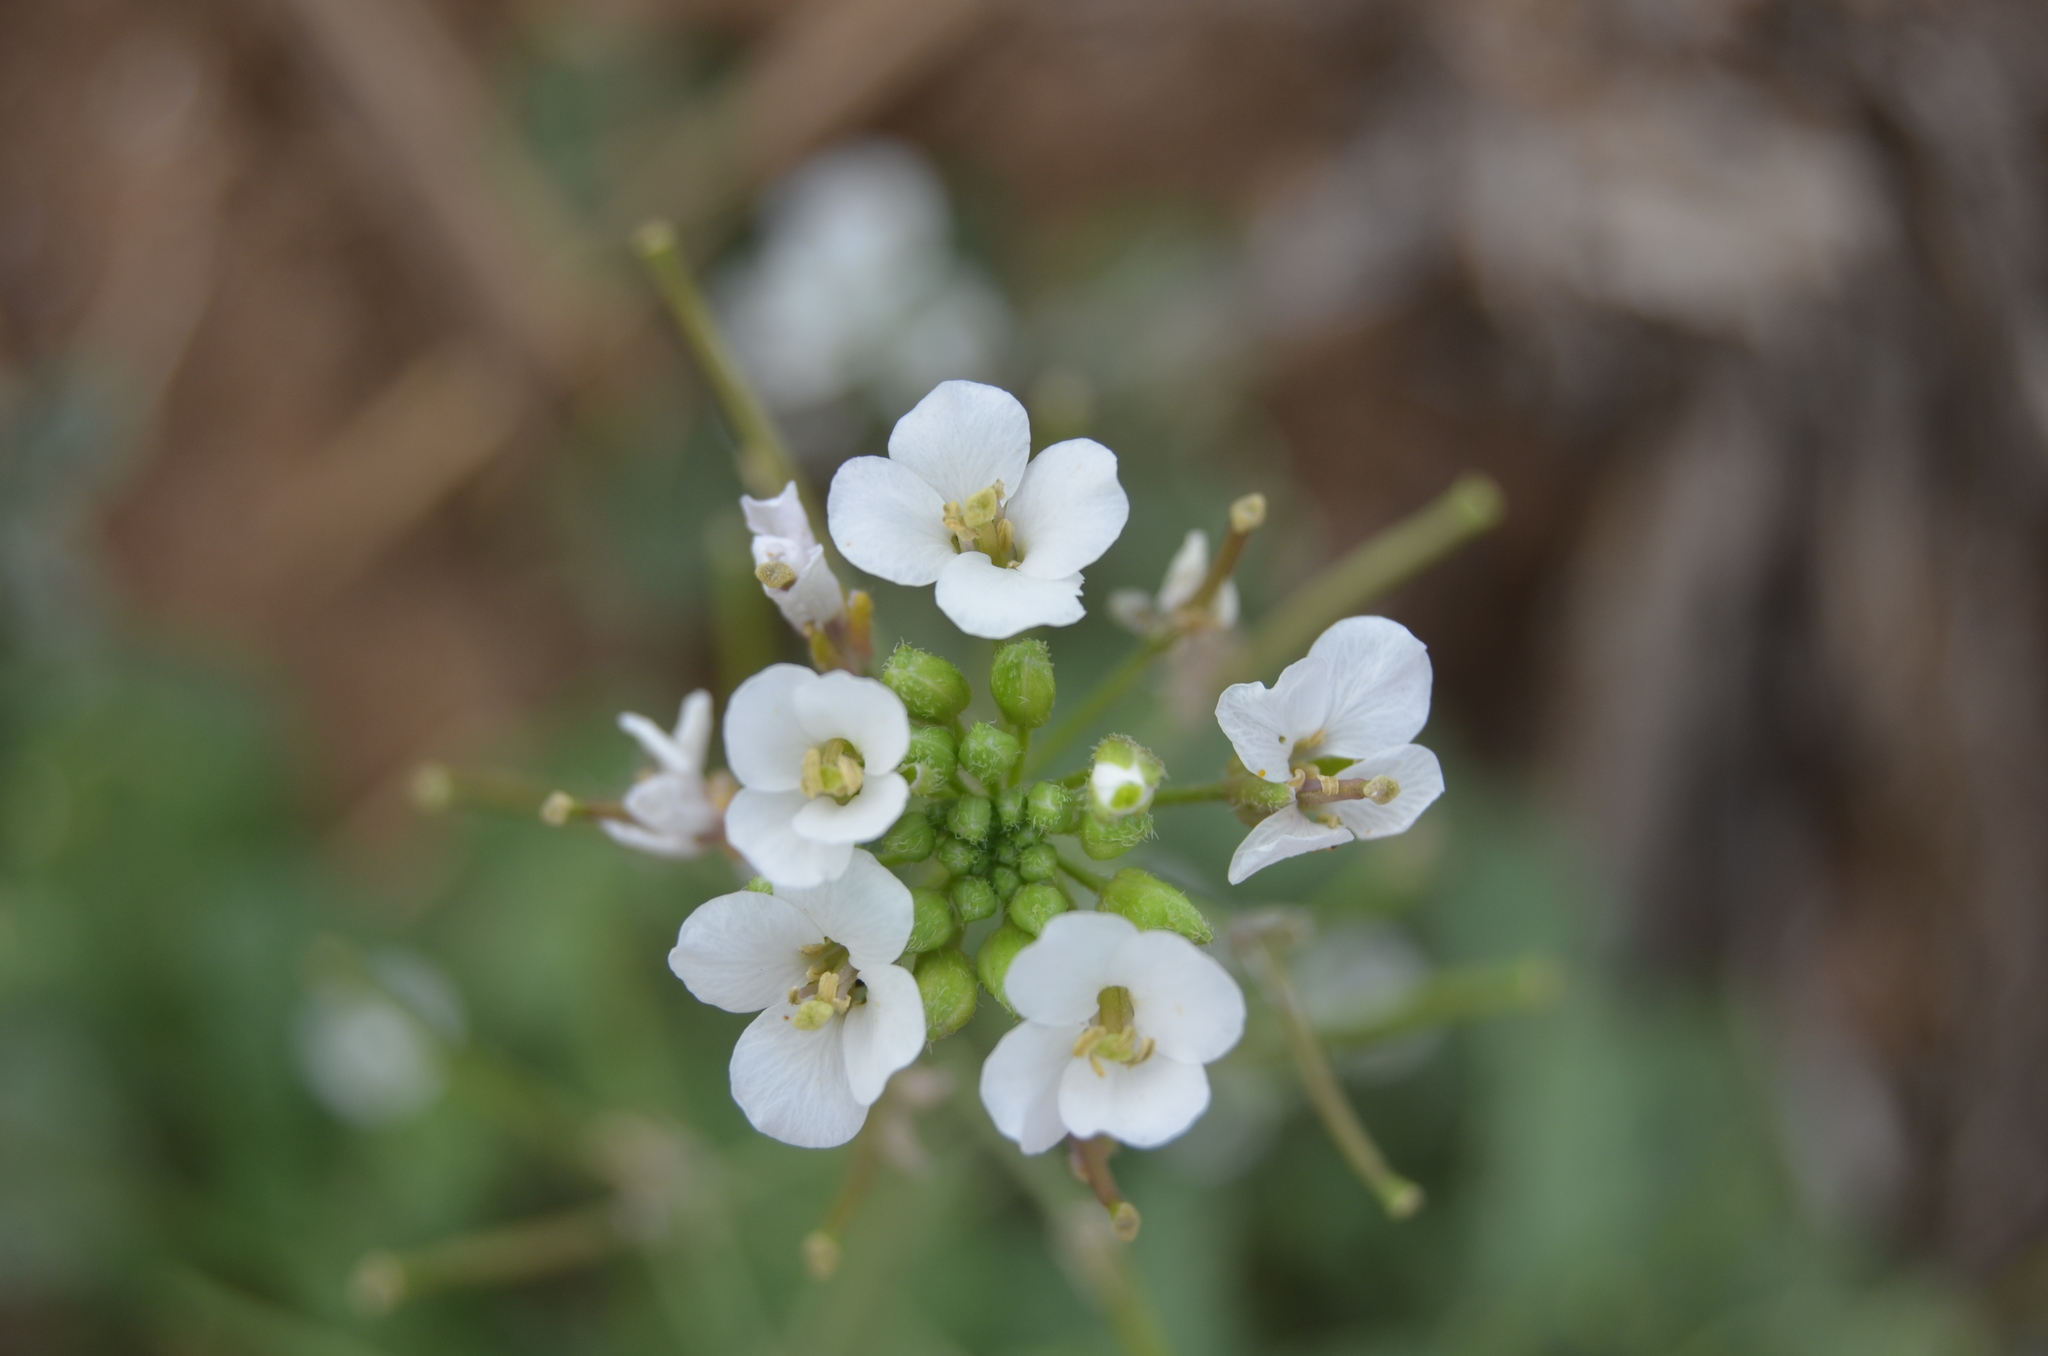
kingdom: Plantae
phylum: Tracheophyta
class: Magnoliopsida
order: Brassicales
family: Brassicaceae
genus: Diplotaxis
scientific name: Diplotaxis erucoides
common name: White rocket
